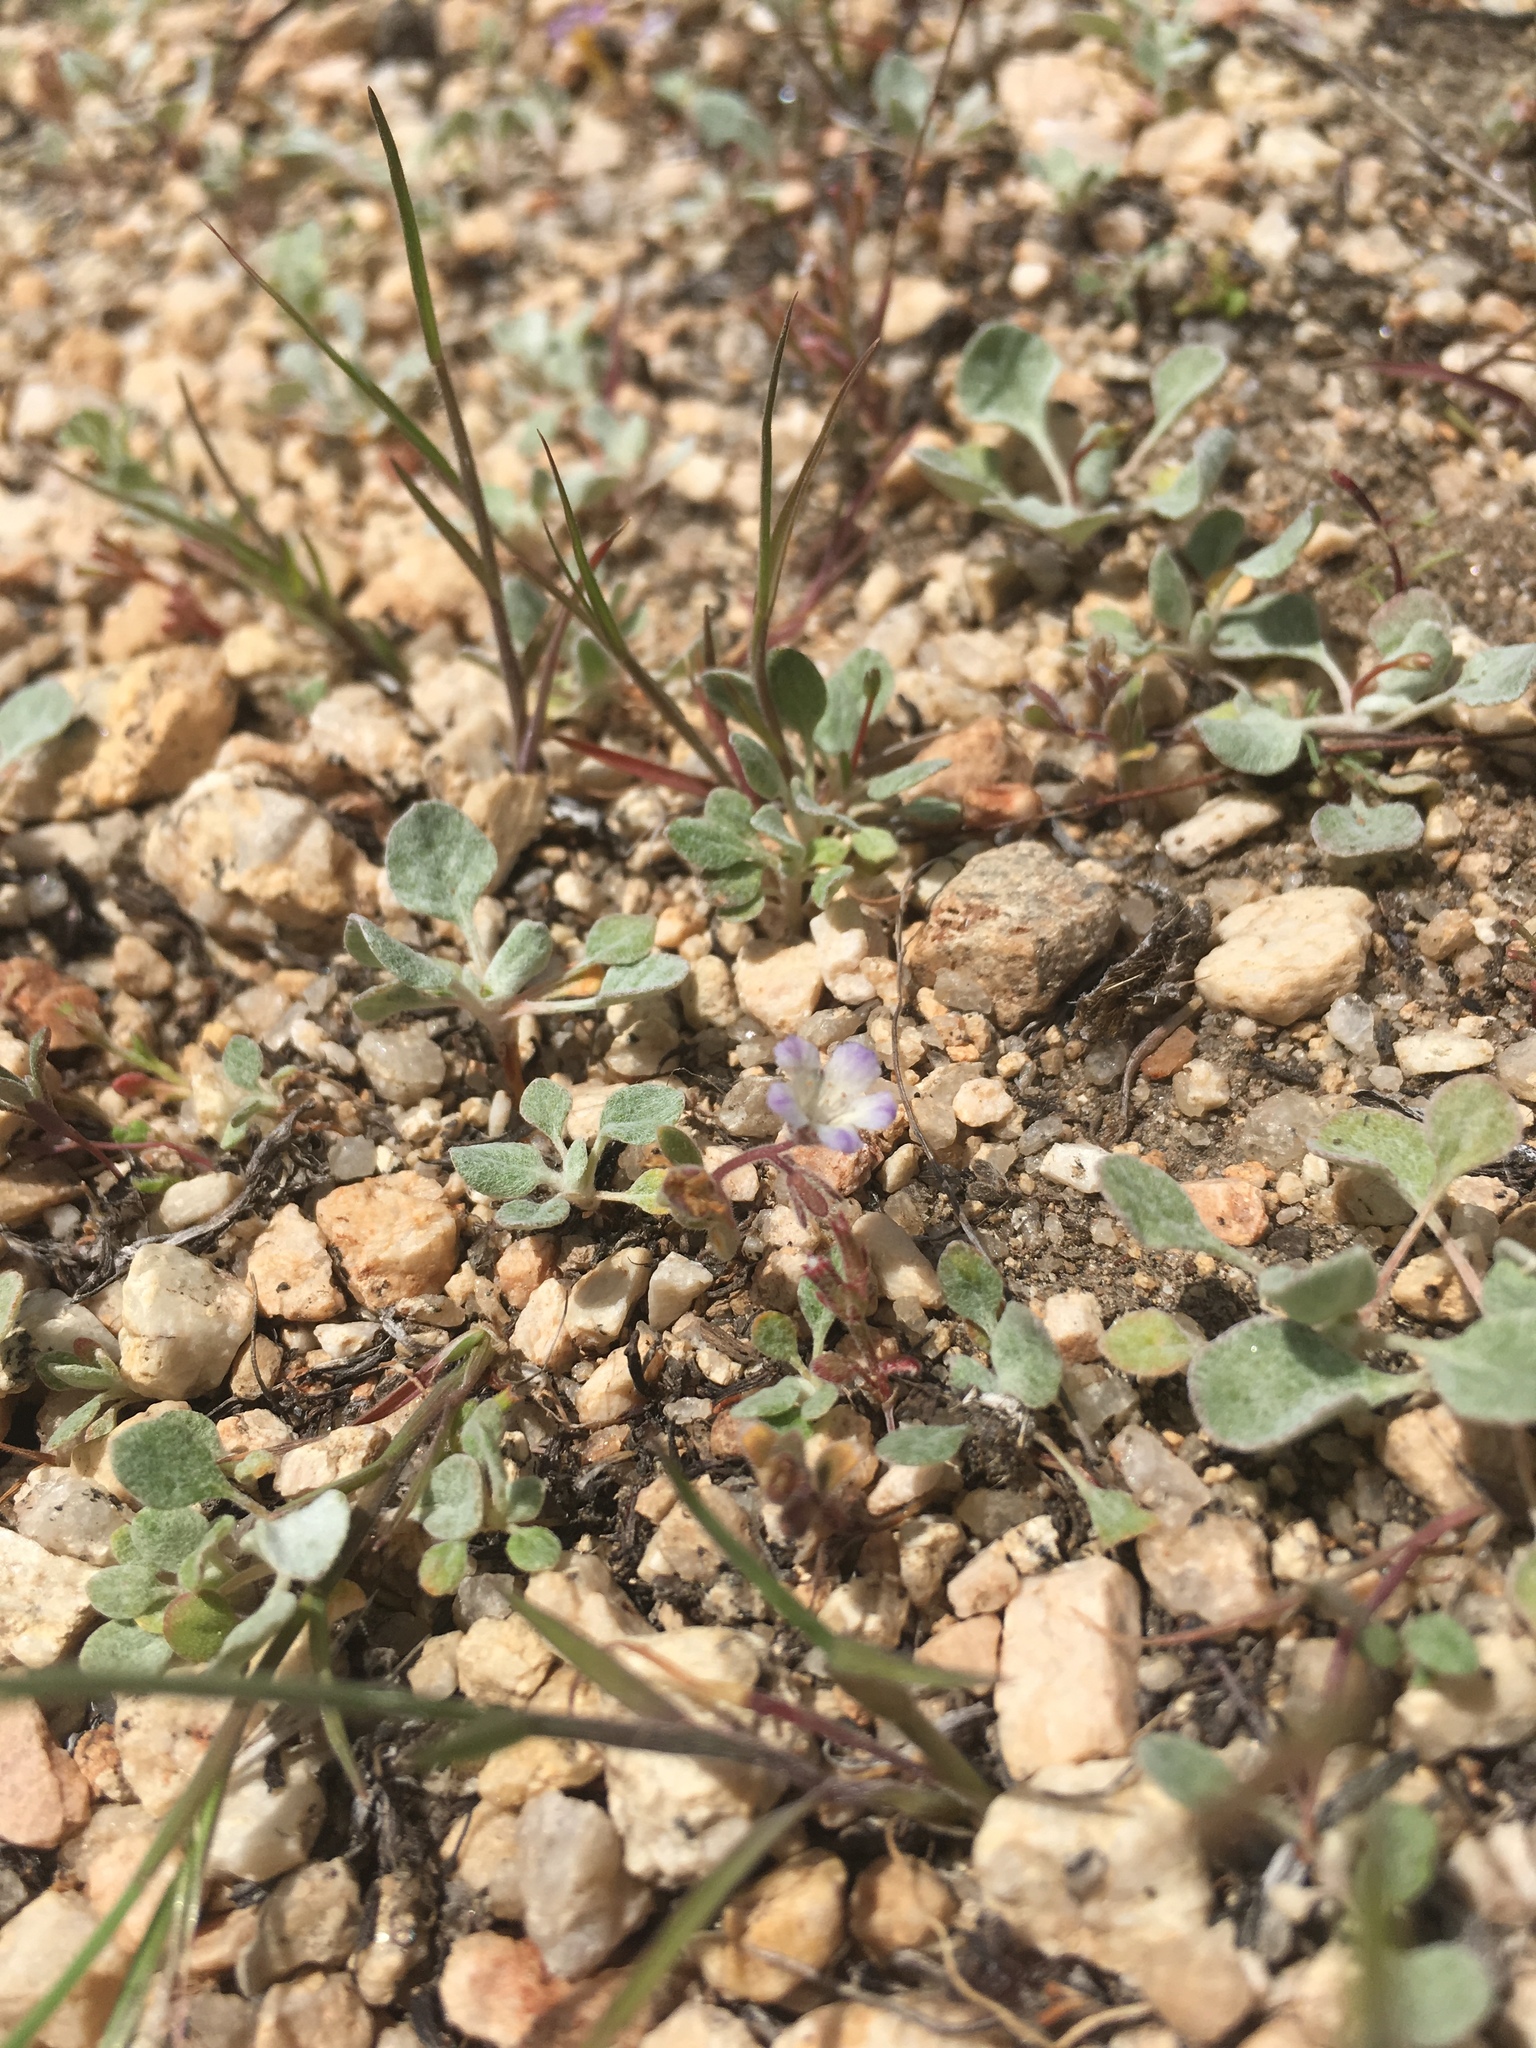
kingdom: Plantae
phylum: Tracheophyta
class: Magnoliopsida
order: Boraginales
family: Hydrophyllaceae
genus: Phacelia
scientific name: Phacelia curvipes
